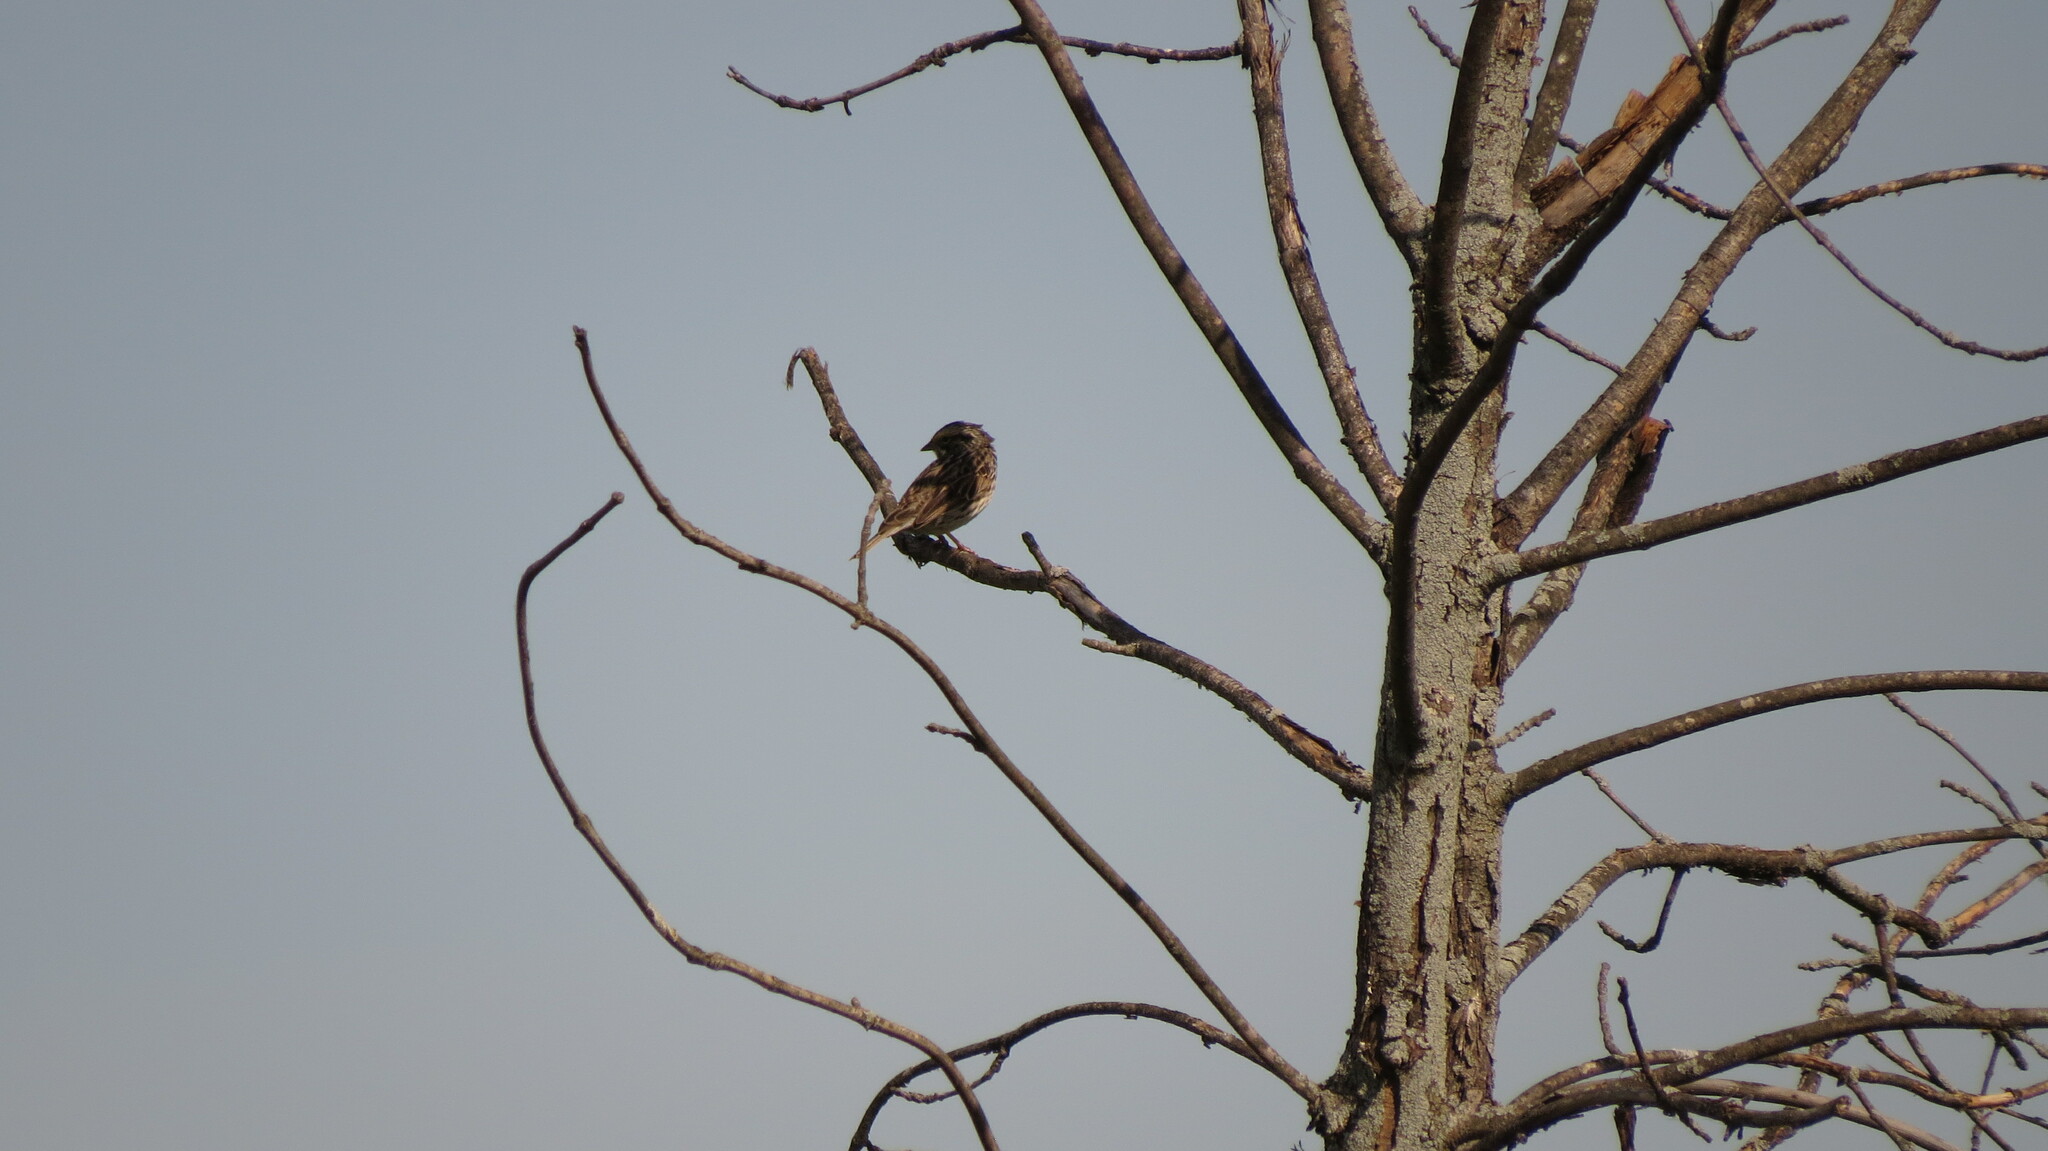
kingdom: Animalia
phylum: Chordata
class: Aves
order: Passeriformes
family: Passerellidae
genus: Passerculus
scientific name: Passerculus sandwichensis
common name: Savannah sparrow
